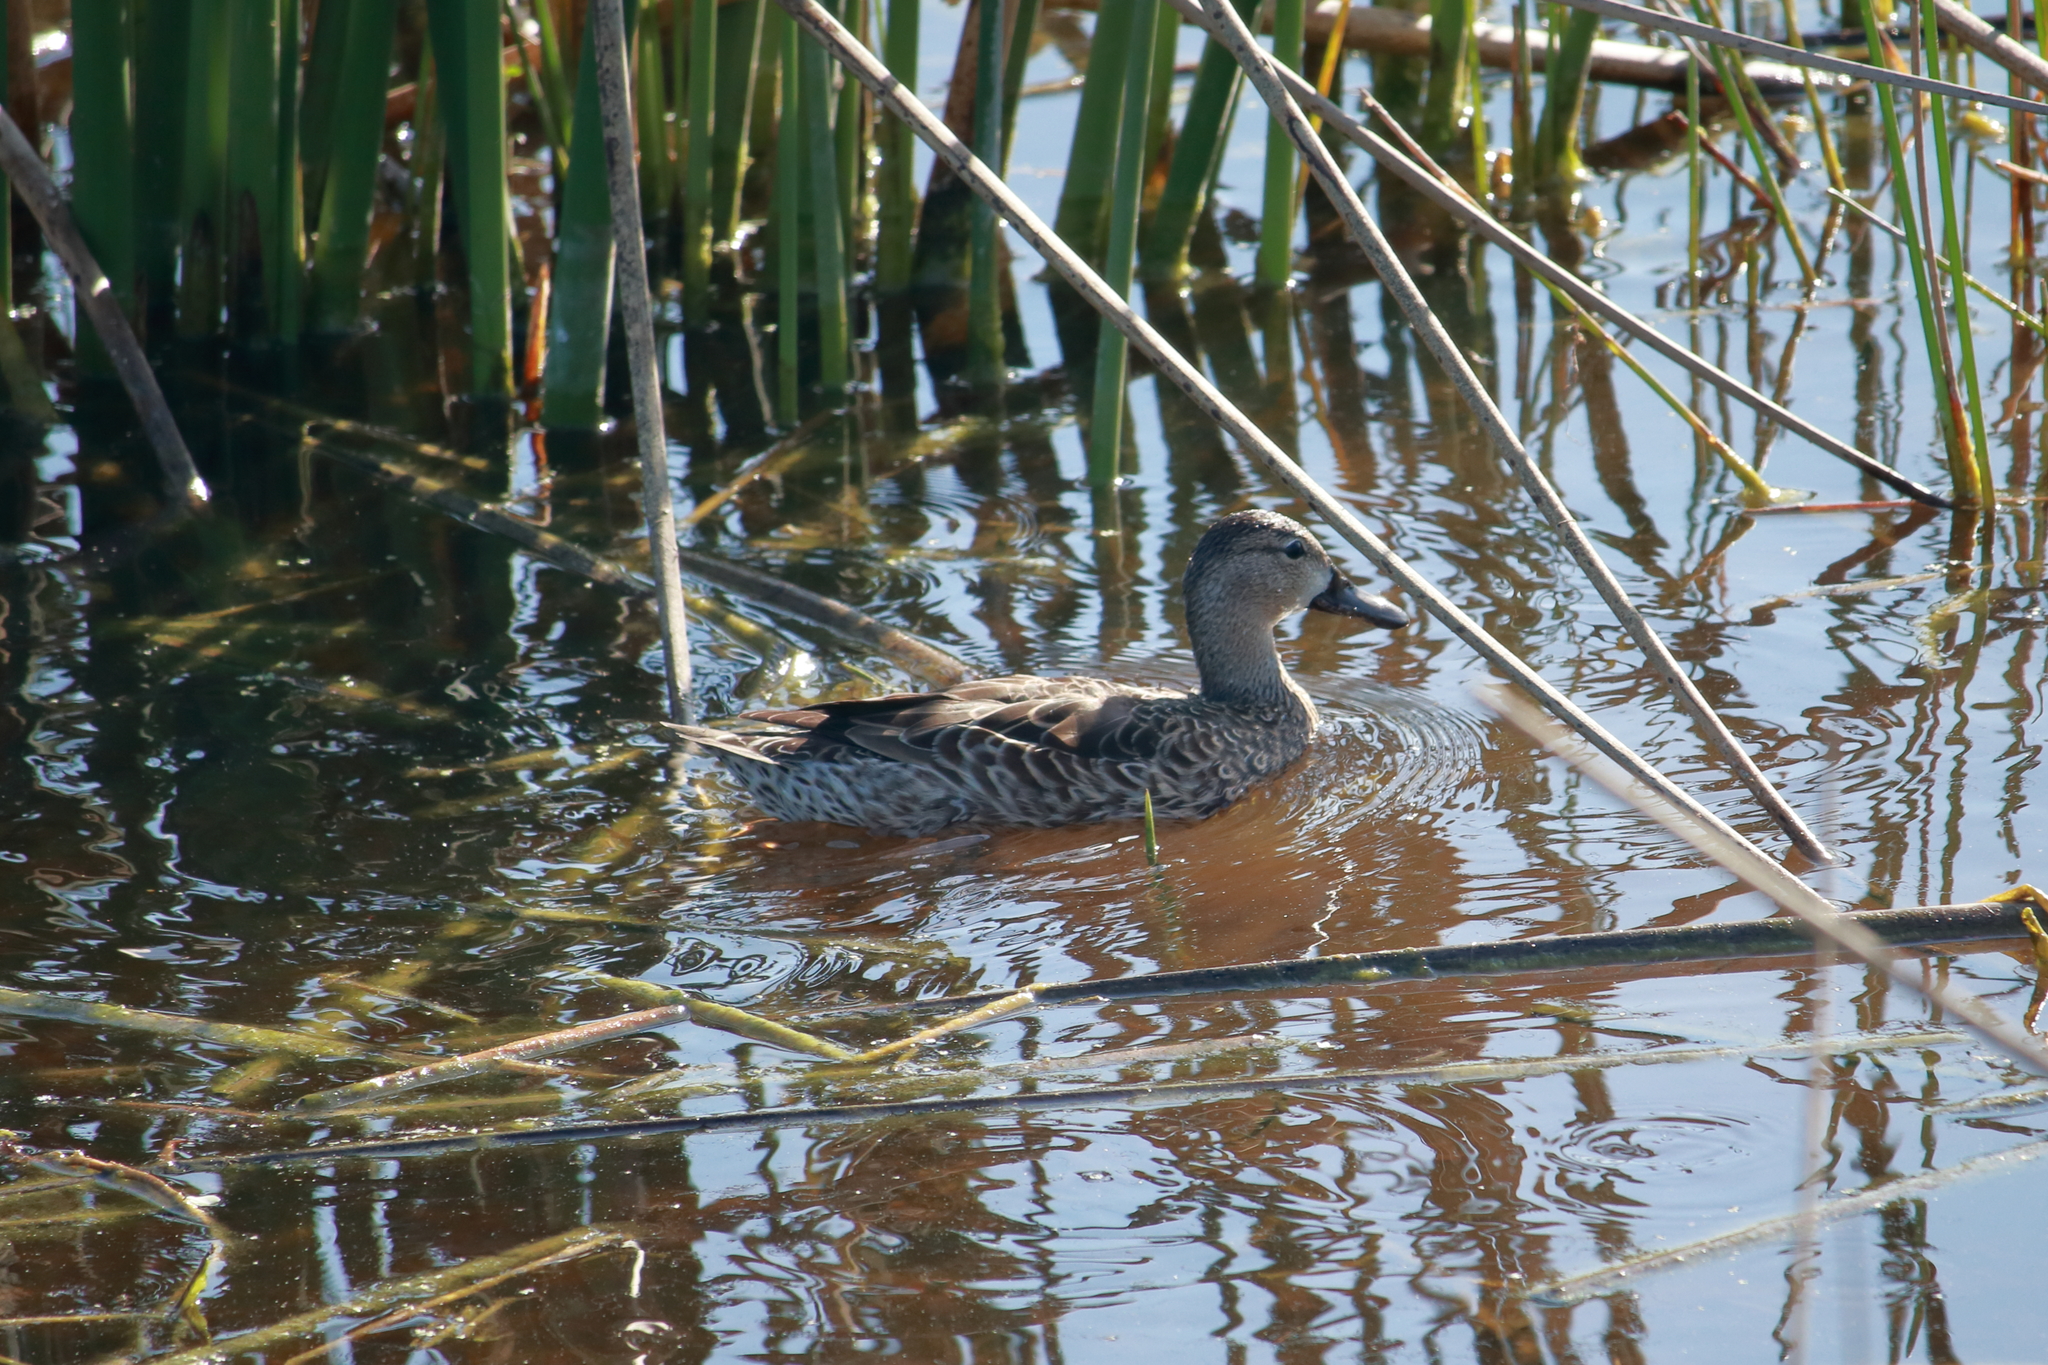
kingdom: Animalia
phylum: Chordata
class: Aves
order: Anseriformes
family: Anatidae
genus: Spatula
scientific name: Spatula discors
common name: Blue-winged teal
